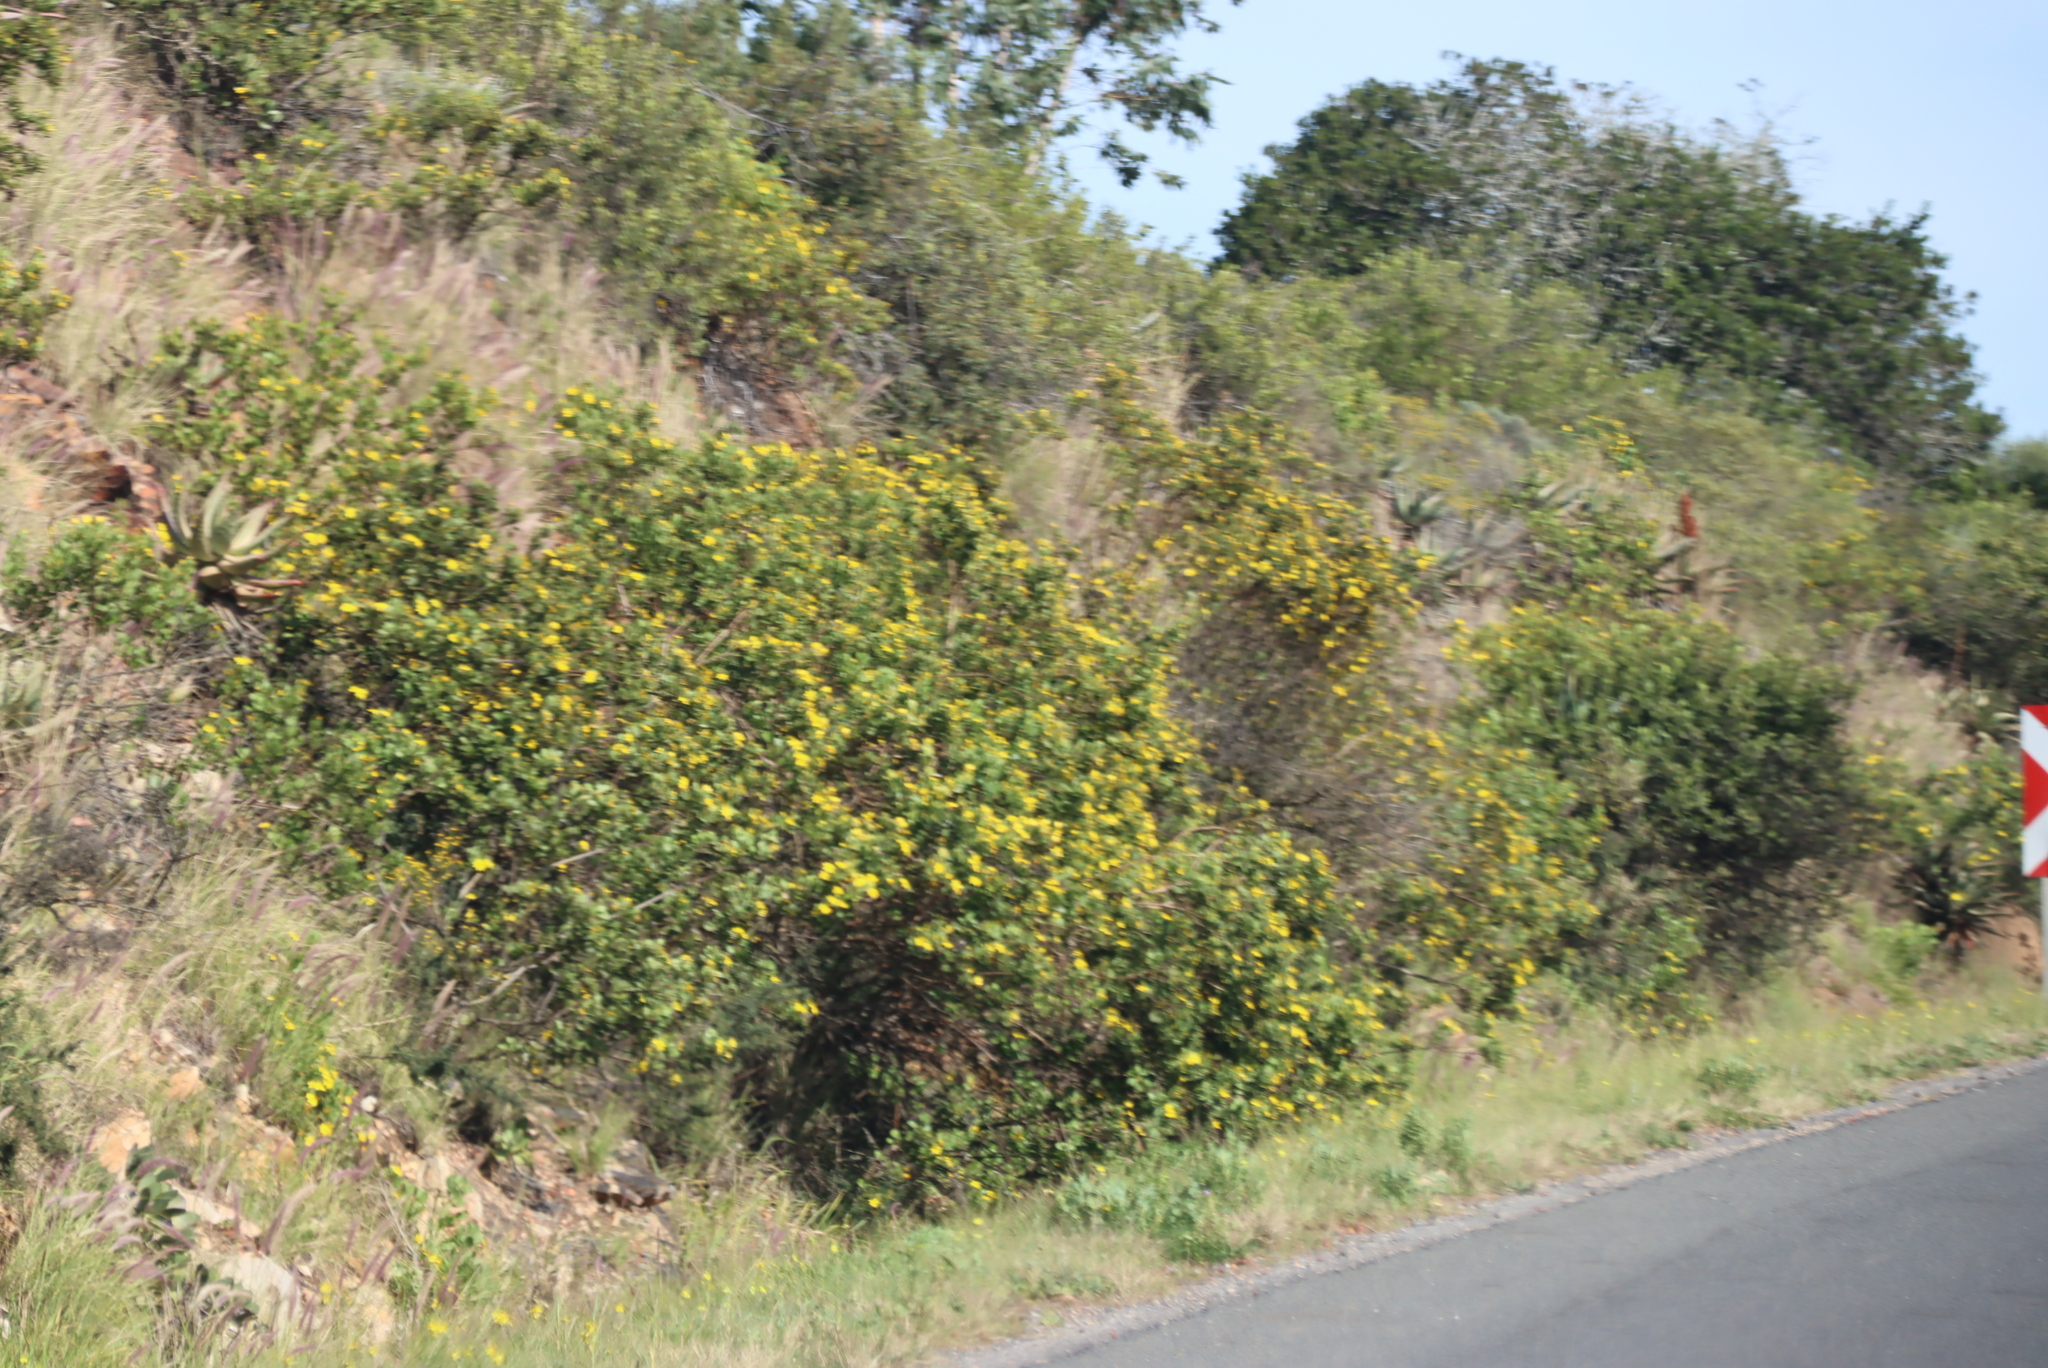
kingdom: Plantae
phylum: Tracheophyta
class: Magnoliopsida
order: Asterales
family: Asteraceae
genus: Osteospermum
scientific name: Osteospermum moniliferum
